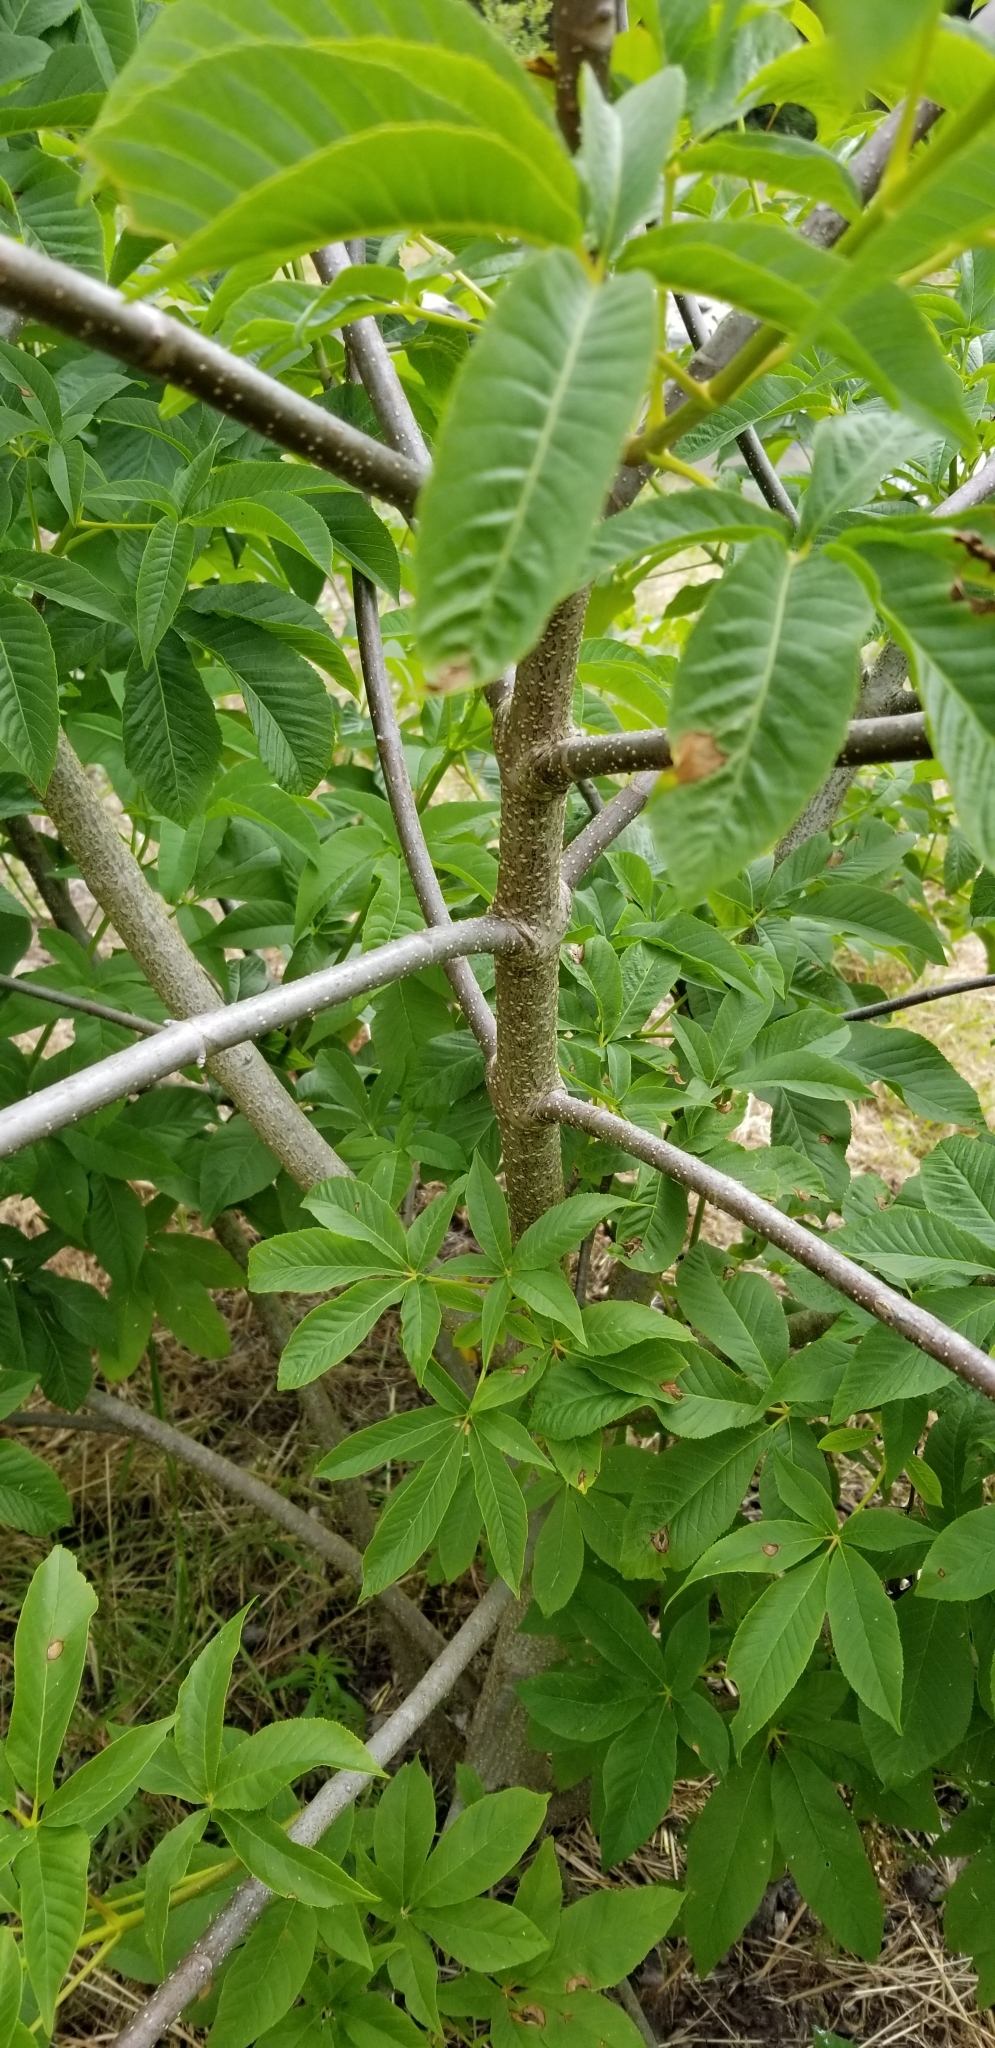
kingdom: Plantae
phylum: Tracheophyta
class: Magnoliopsida
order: Sapindales
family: Sapindaceae
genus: Aesculus
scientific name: Aesculus californica
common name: California buckeye
